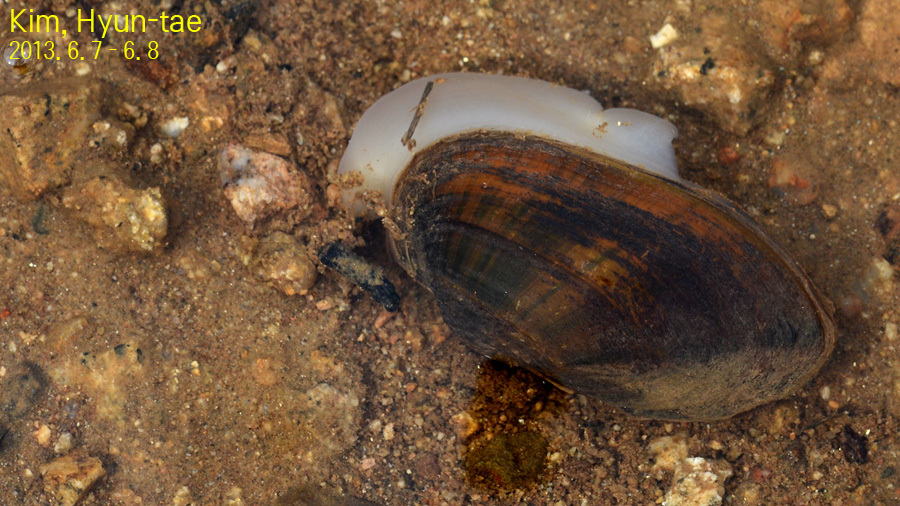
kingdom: Animalia
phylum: Mollusca
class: Bivalvia
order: Unionida
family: Unionidae
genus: Nodularia
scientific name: Nodularia breviconcha
